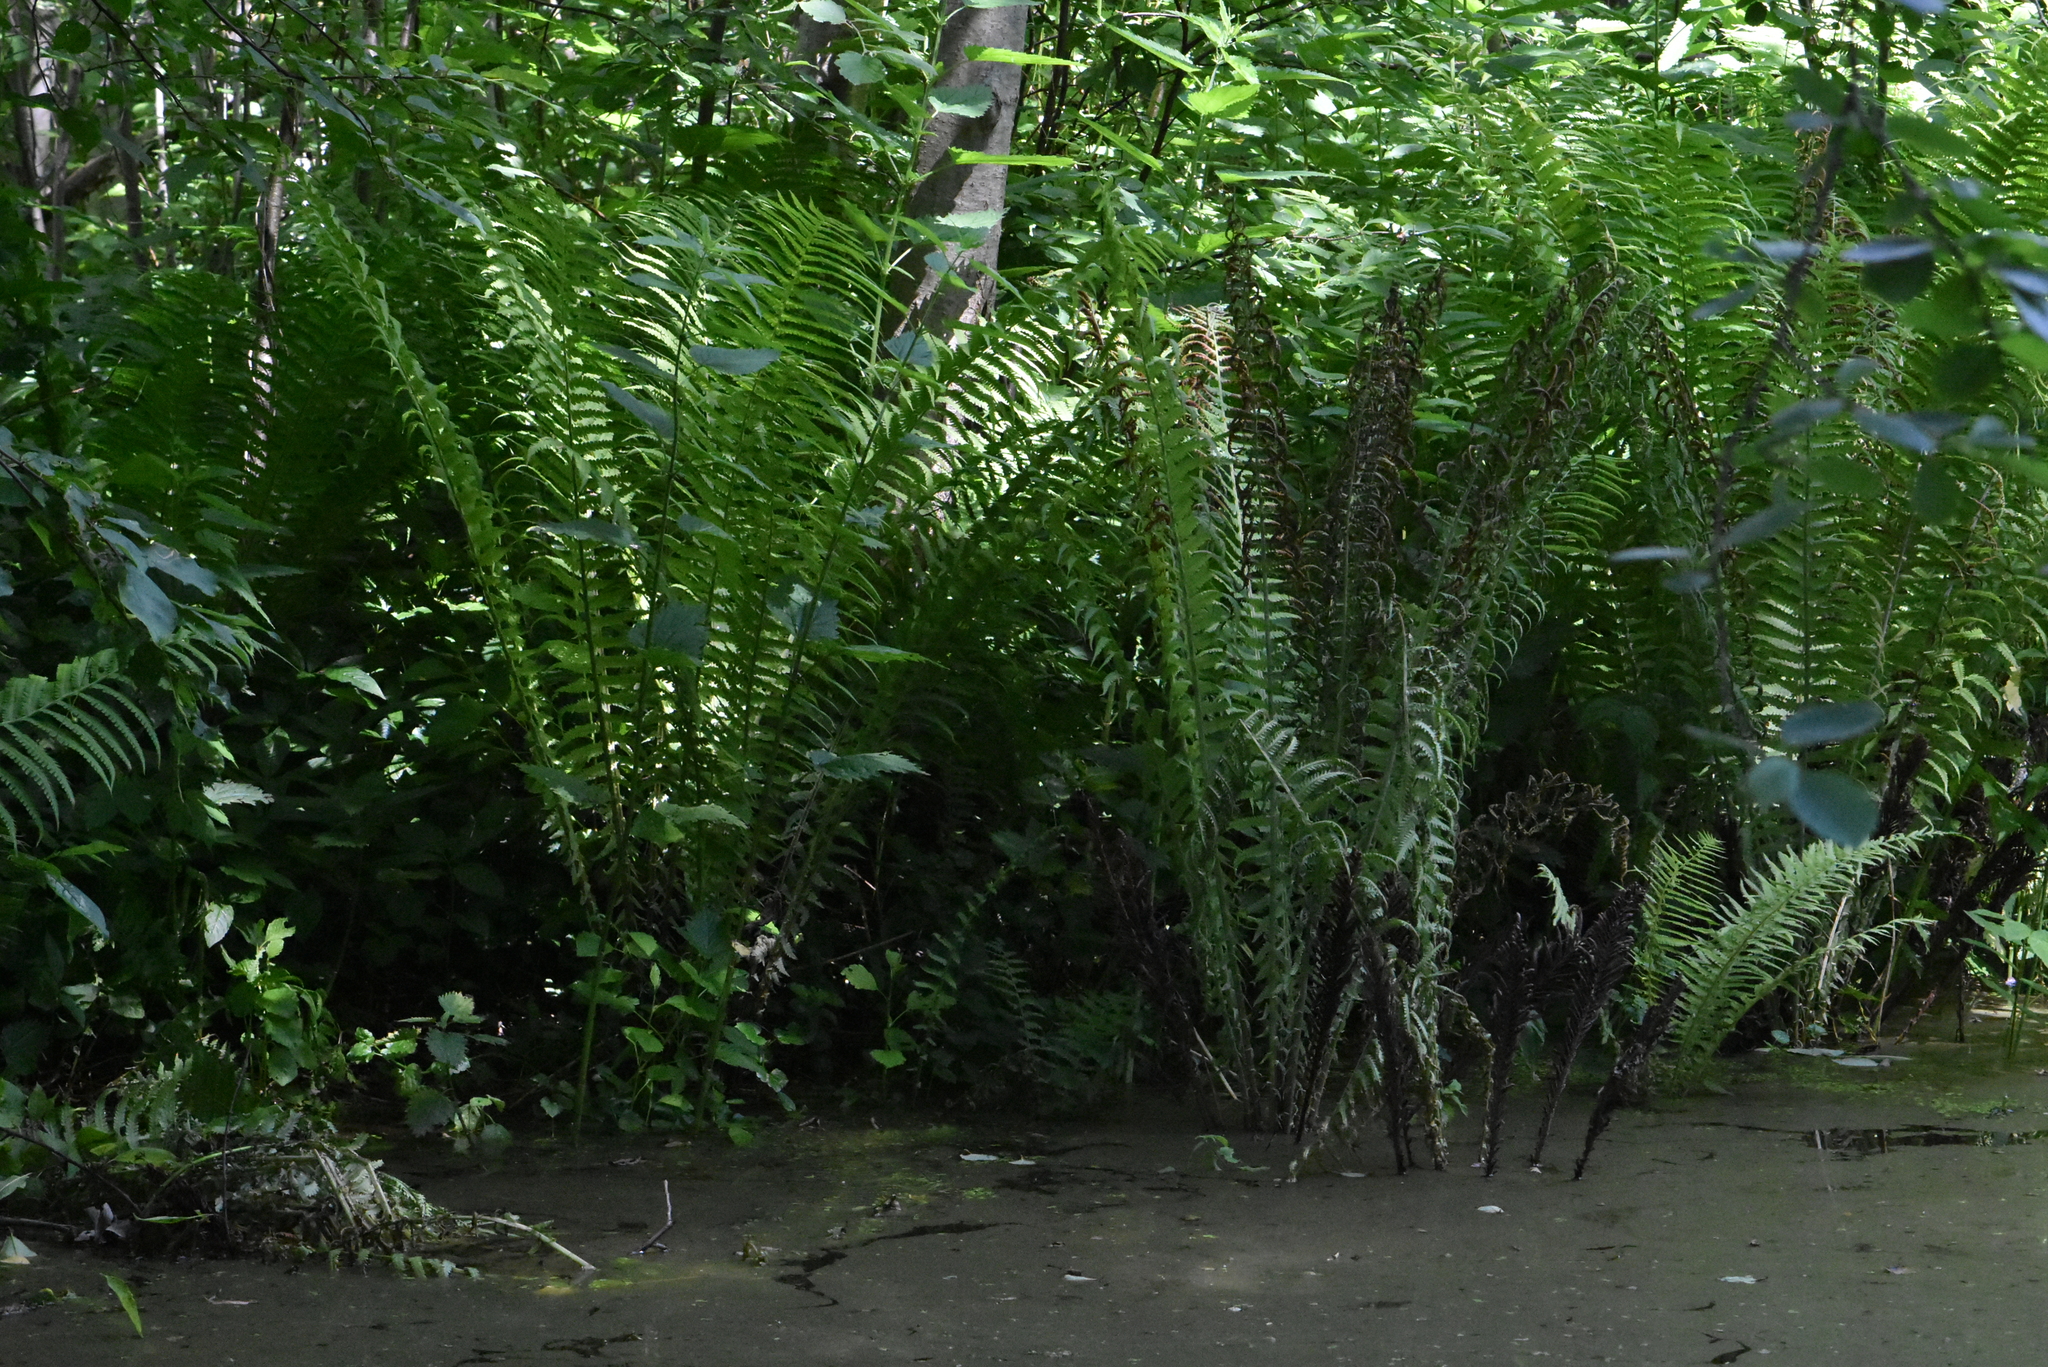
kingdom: Plantae
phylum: Tracheophyta
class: Polypodiopsida
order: Polypodiales
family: Onocleaceae
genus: Matteuccia
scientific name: Matteuccia struthiopteris
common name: Ostrich fern
